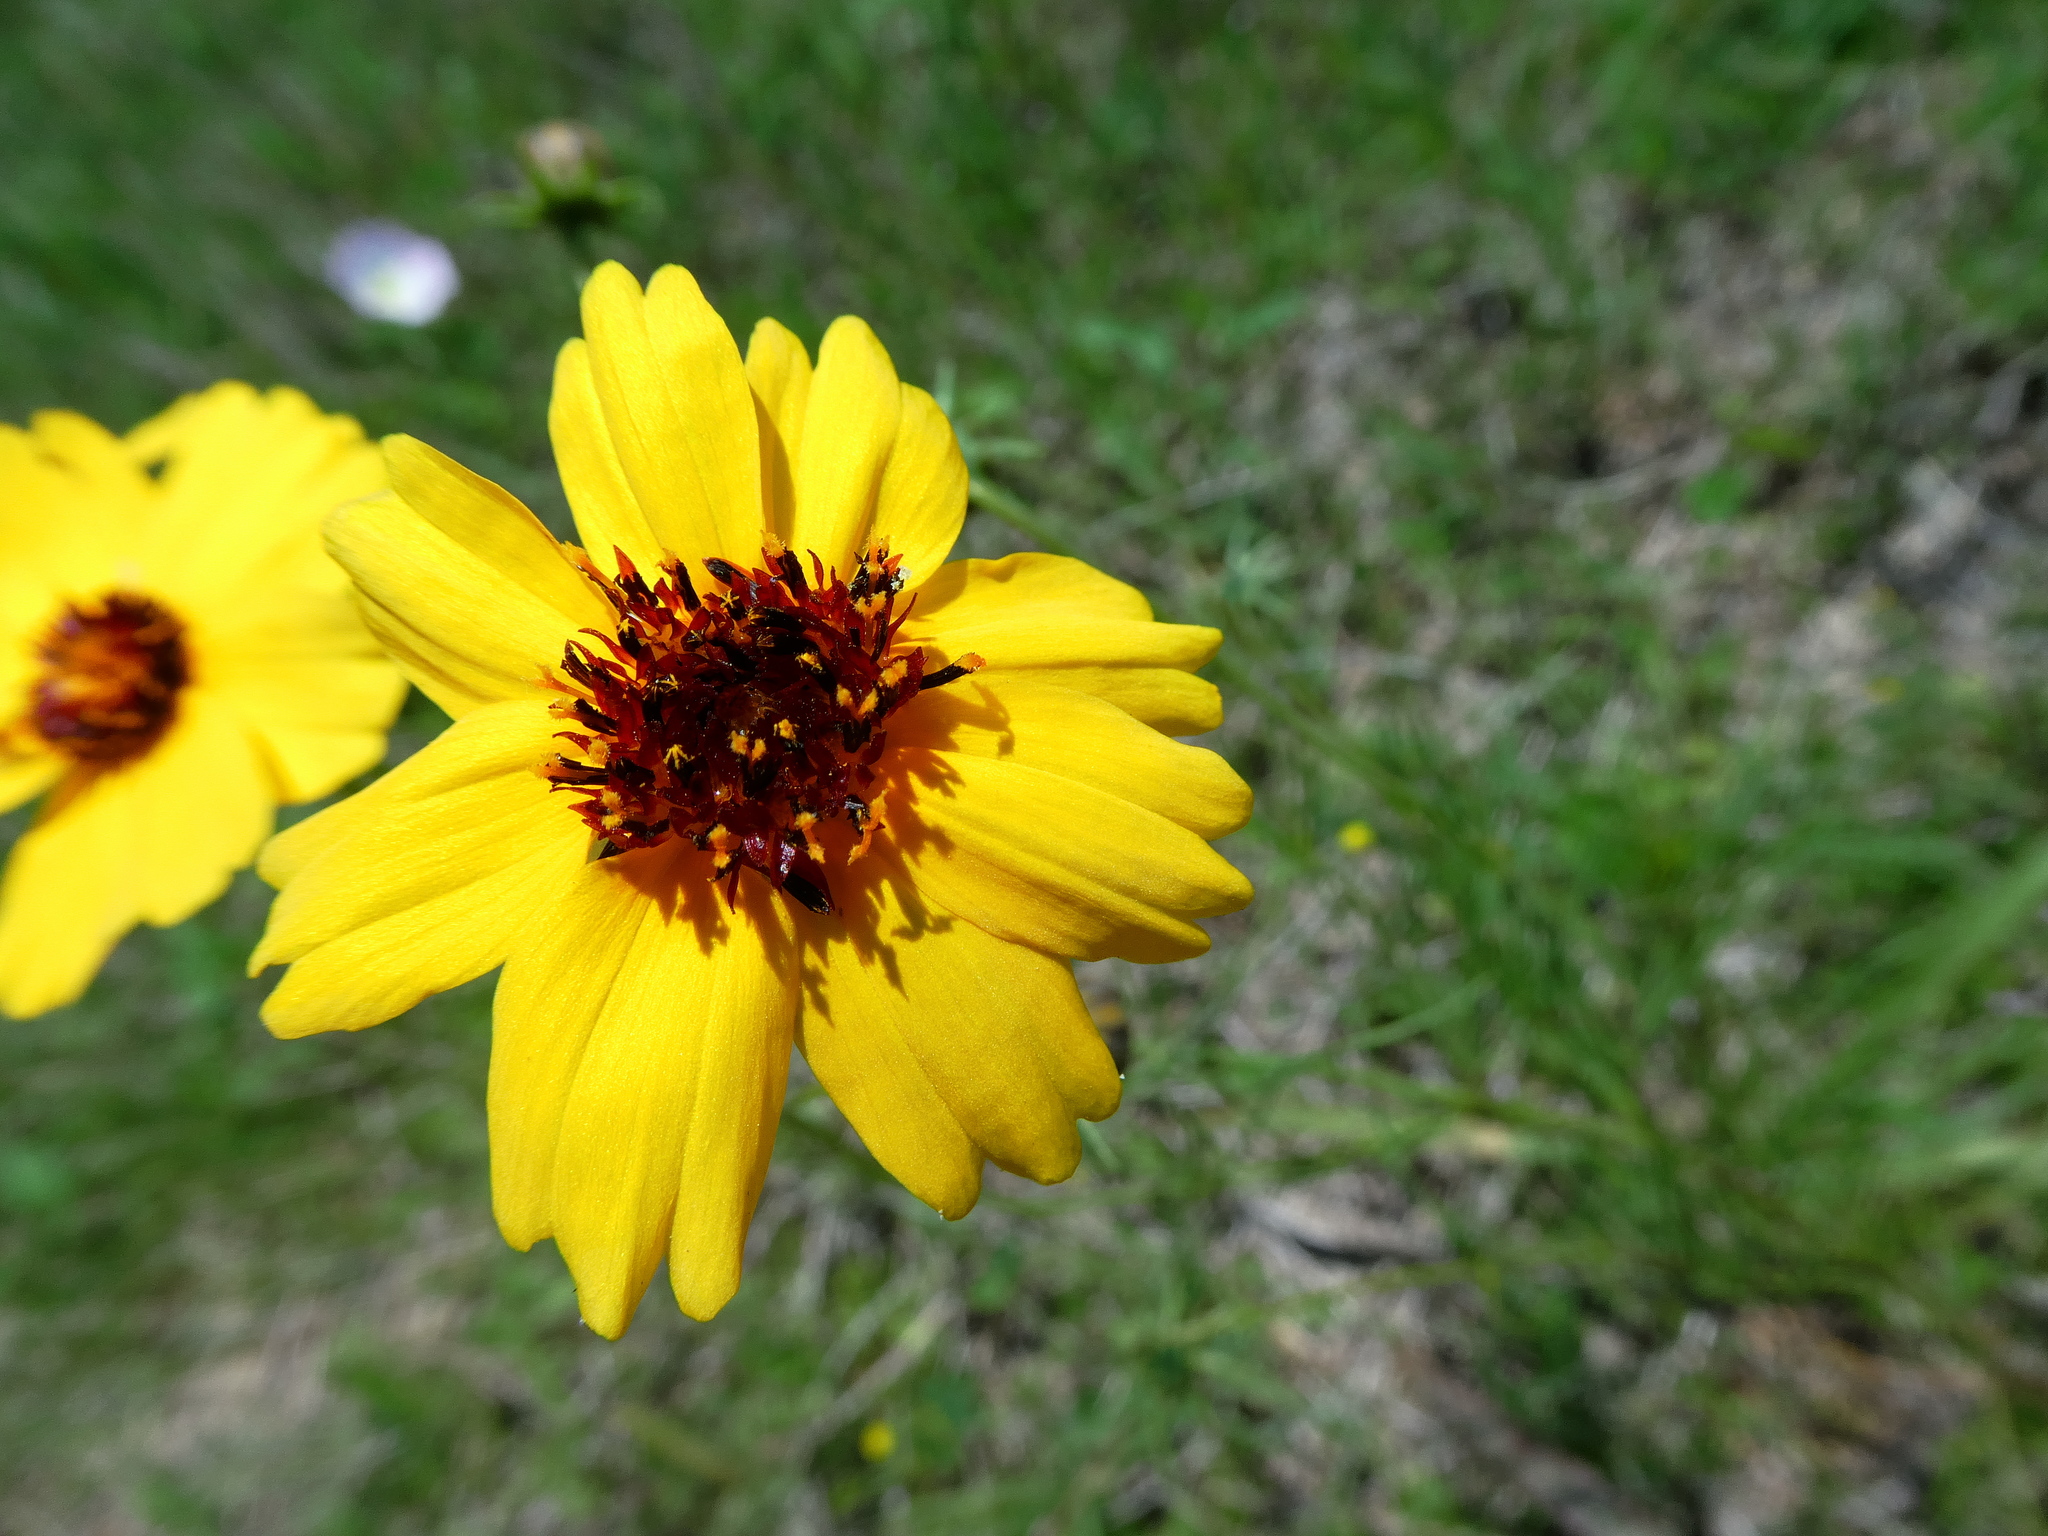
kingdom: Plantae
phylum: Tracheophyta
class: Magnoliopsida
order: Asterales
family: Asteraceae
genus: Thelesperma
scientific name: Thelesperma filifolium
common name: Stiff greenthread
